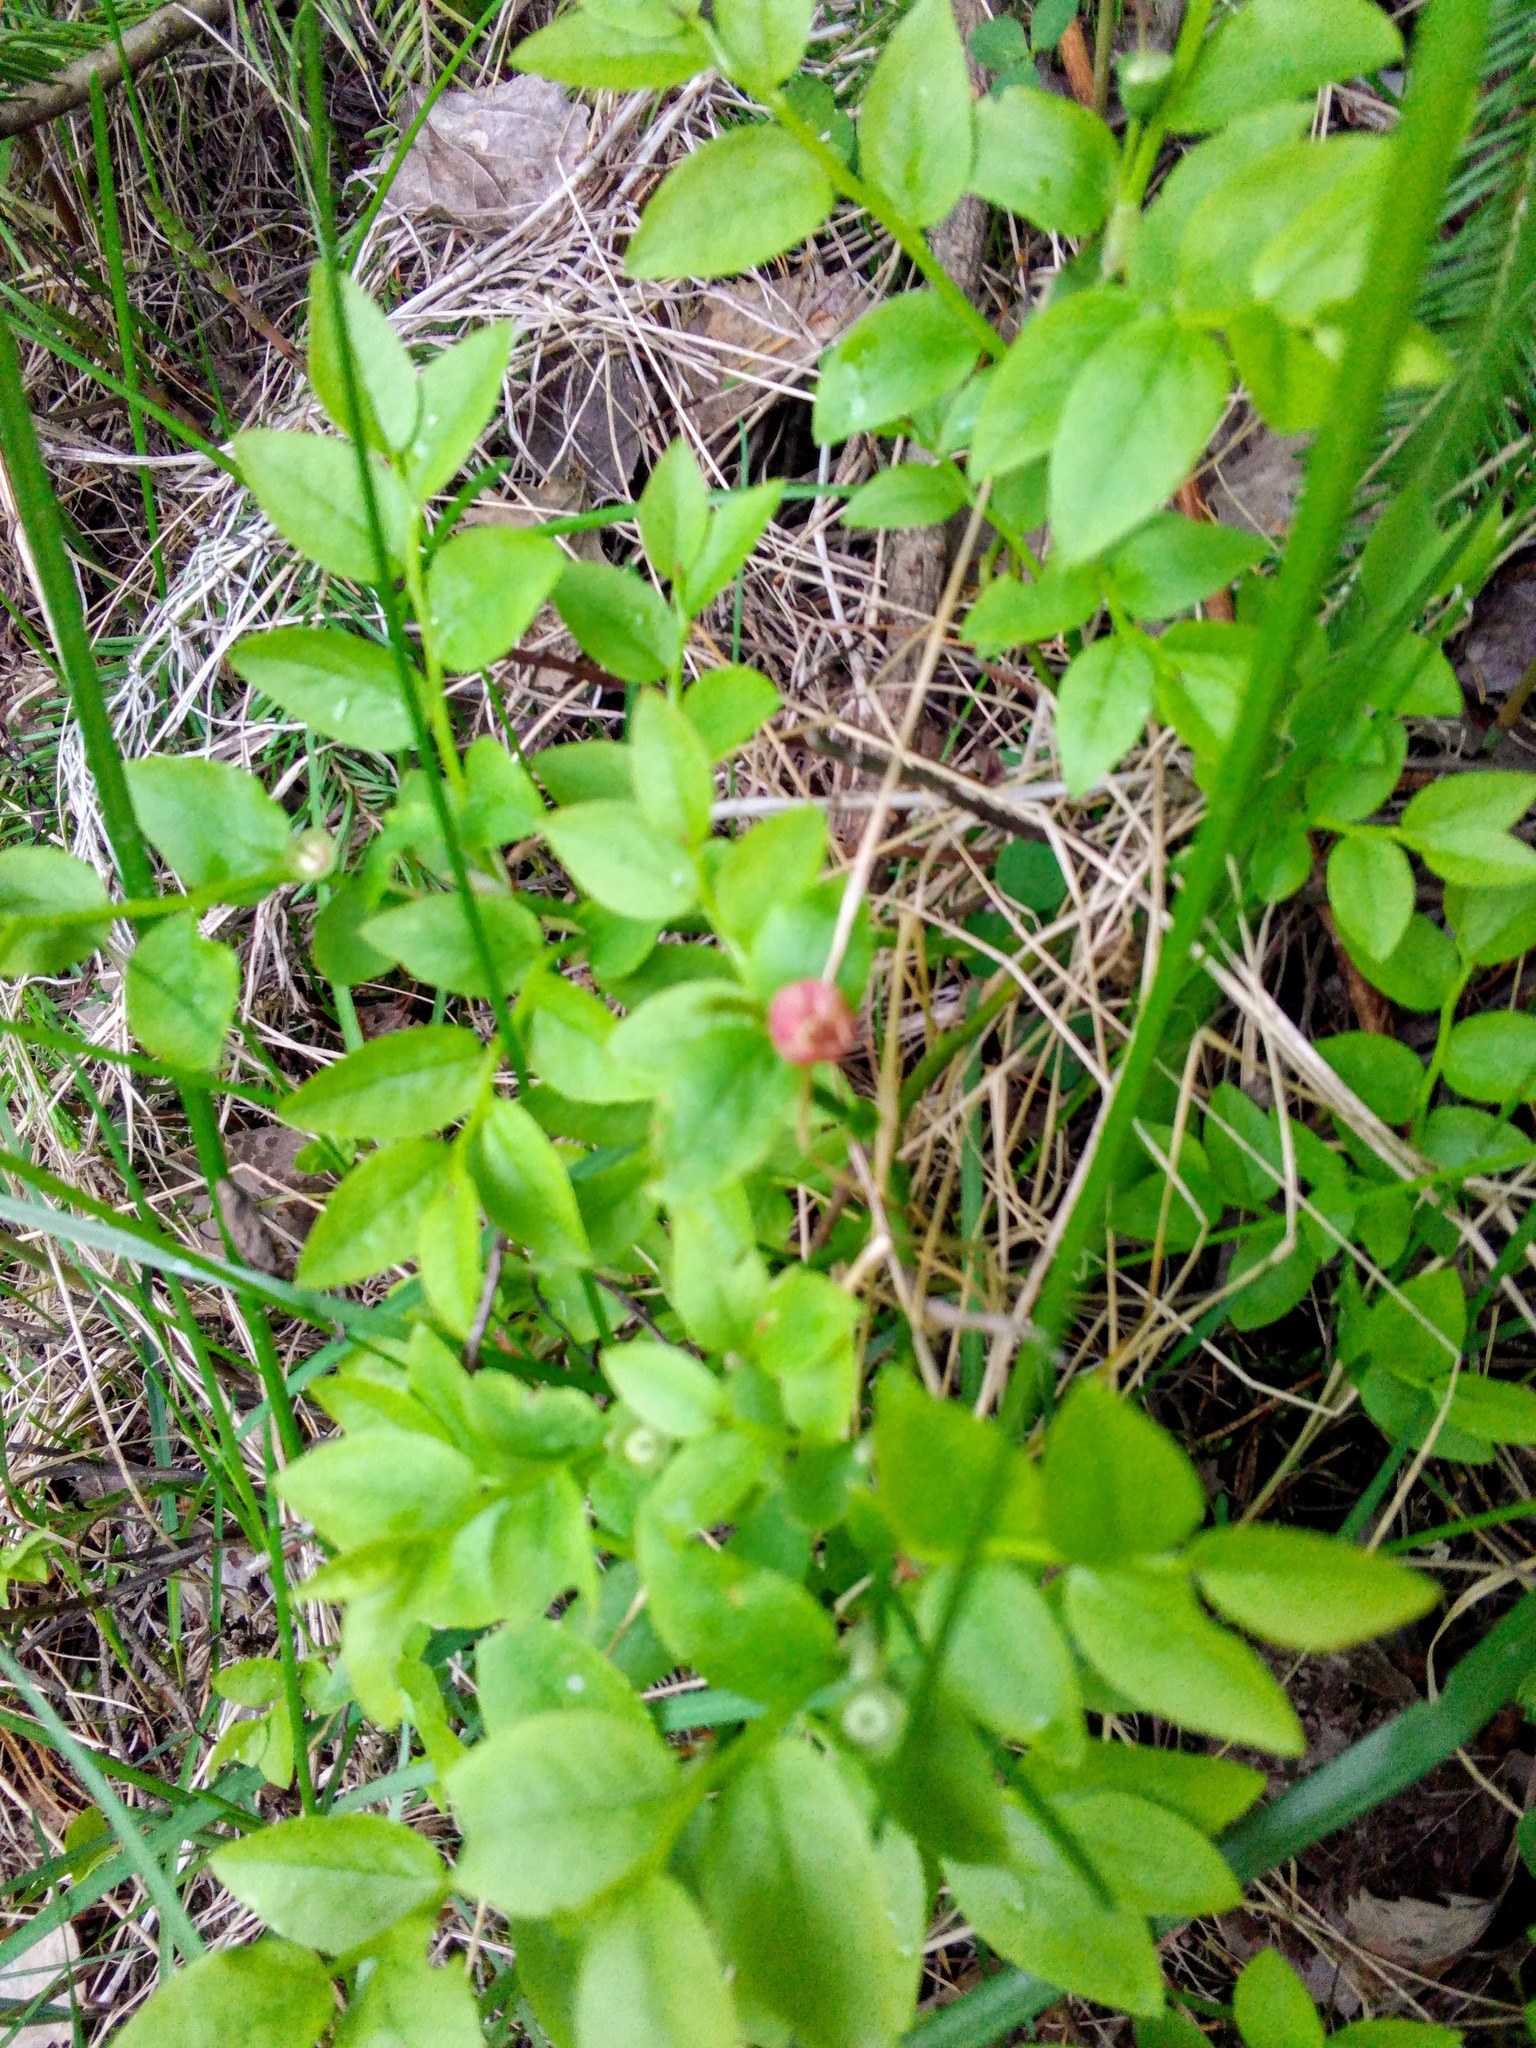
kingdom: Plantae
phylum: Tracheophyta
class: Magnoliopsida
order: Ericales
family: Ericaceae
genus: Vaccinium
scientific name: Vaccinium myrtillus
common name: Bilberry
